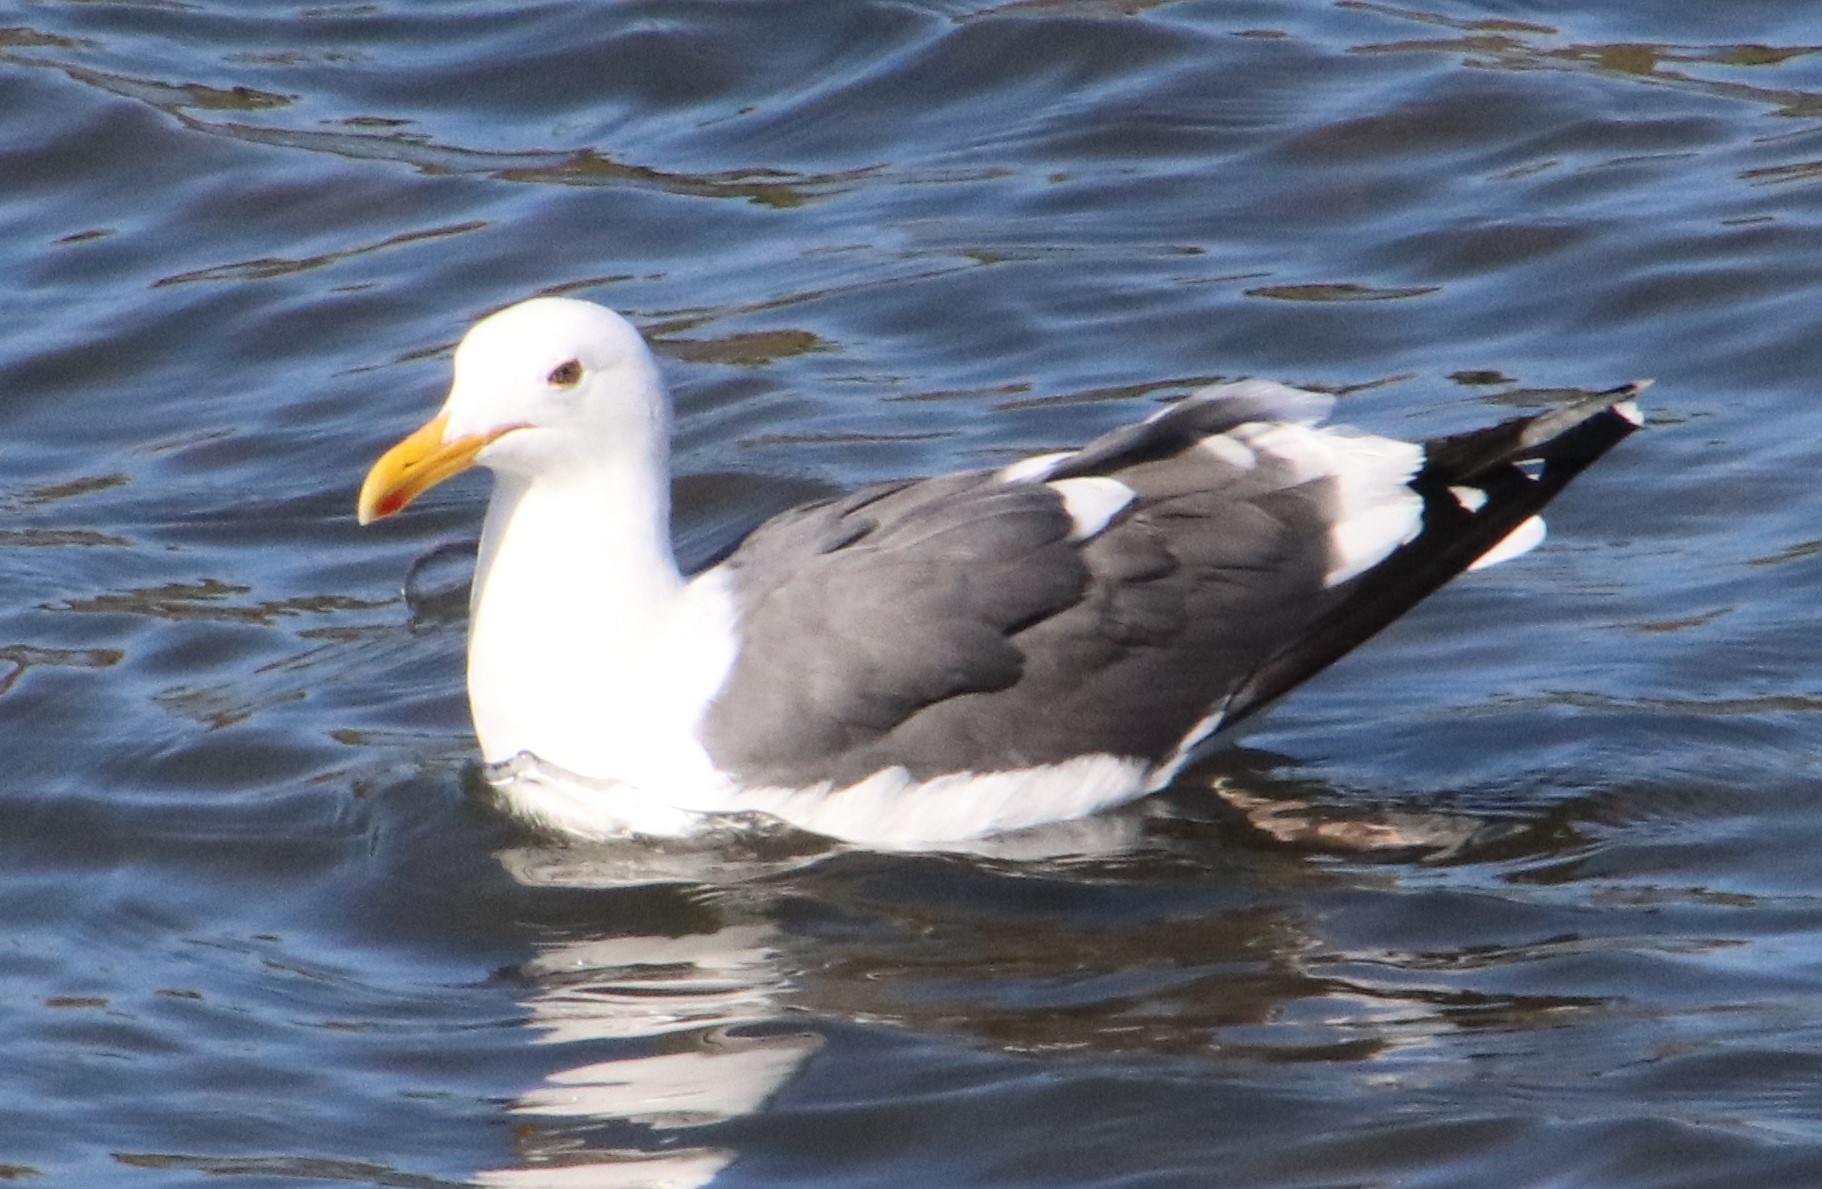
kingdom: Animalia
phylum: Chordata
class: Aves
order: Charadriiformes
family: Laridae
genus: Larus
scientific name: Larus occidentalis
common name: Western gull
